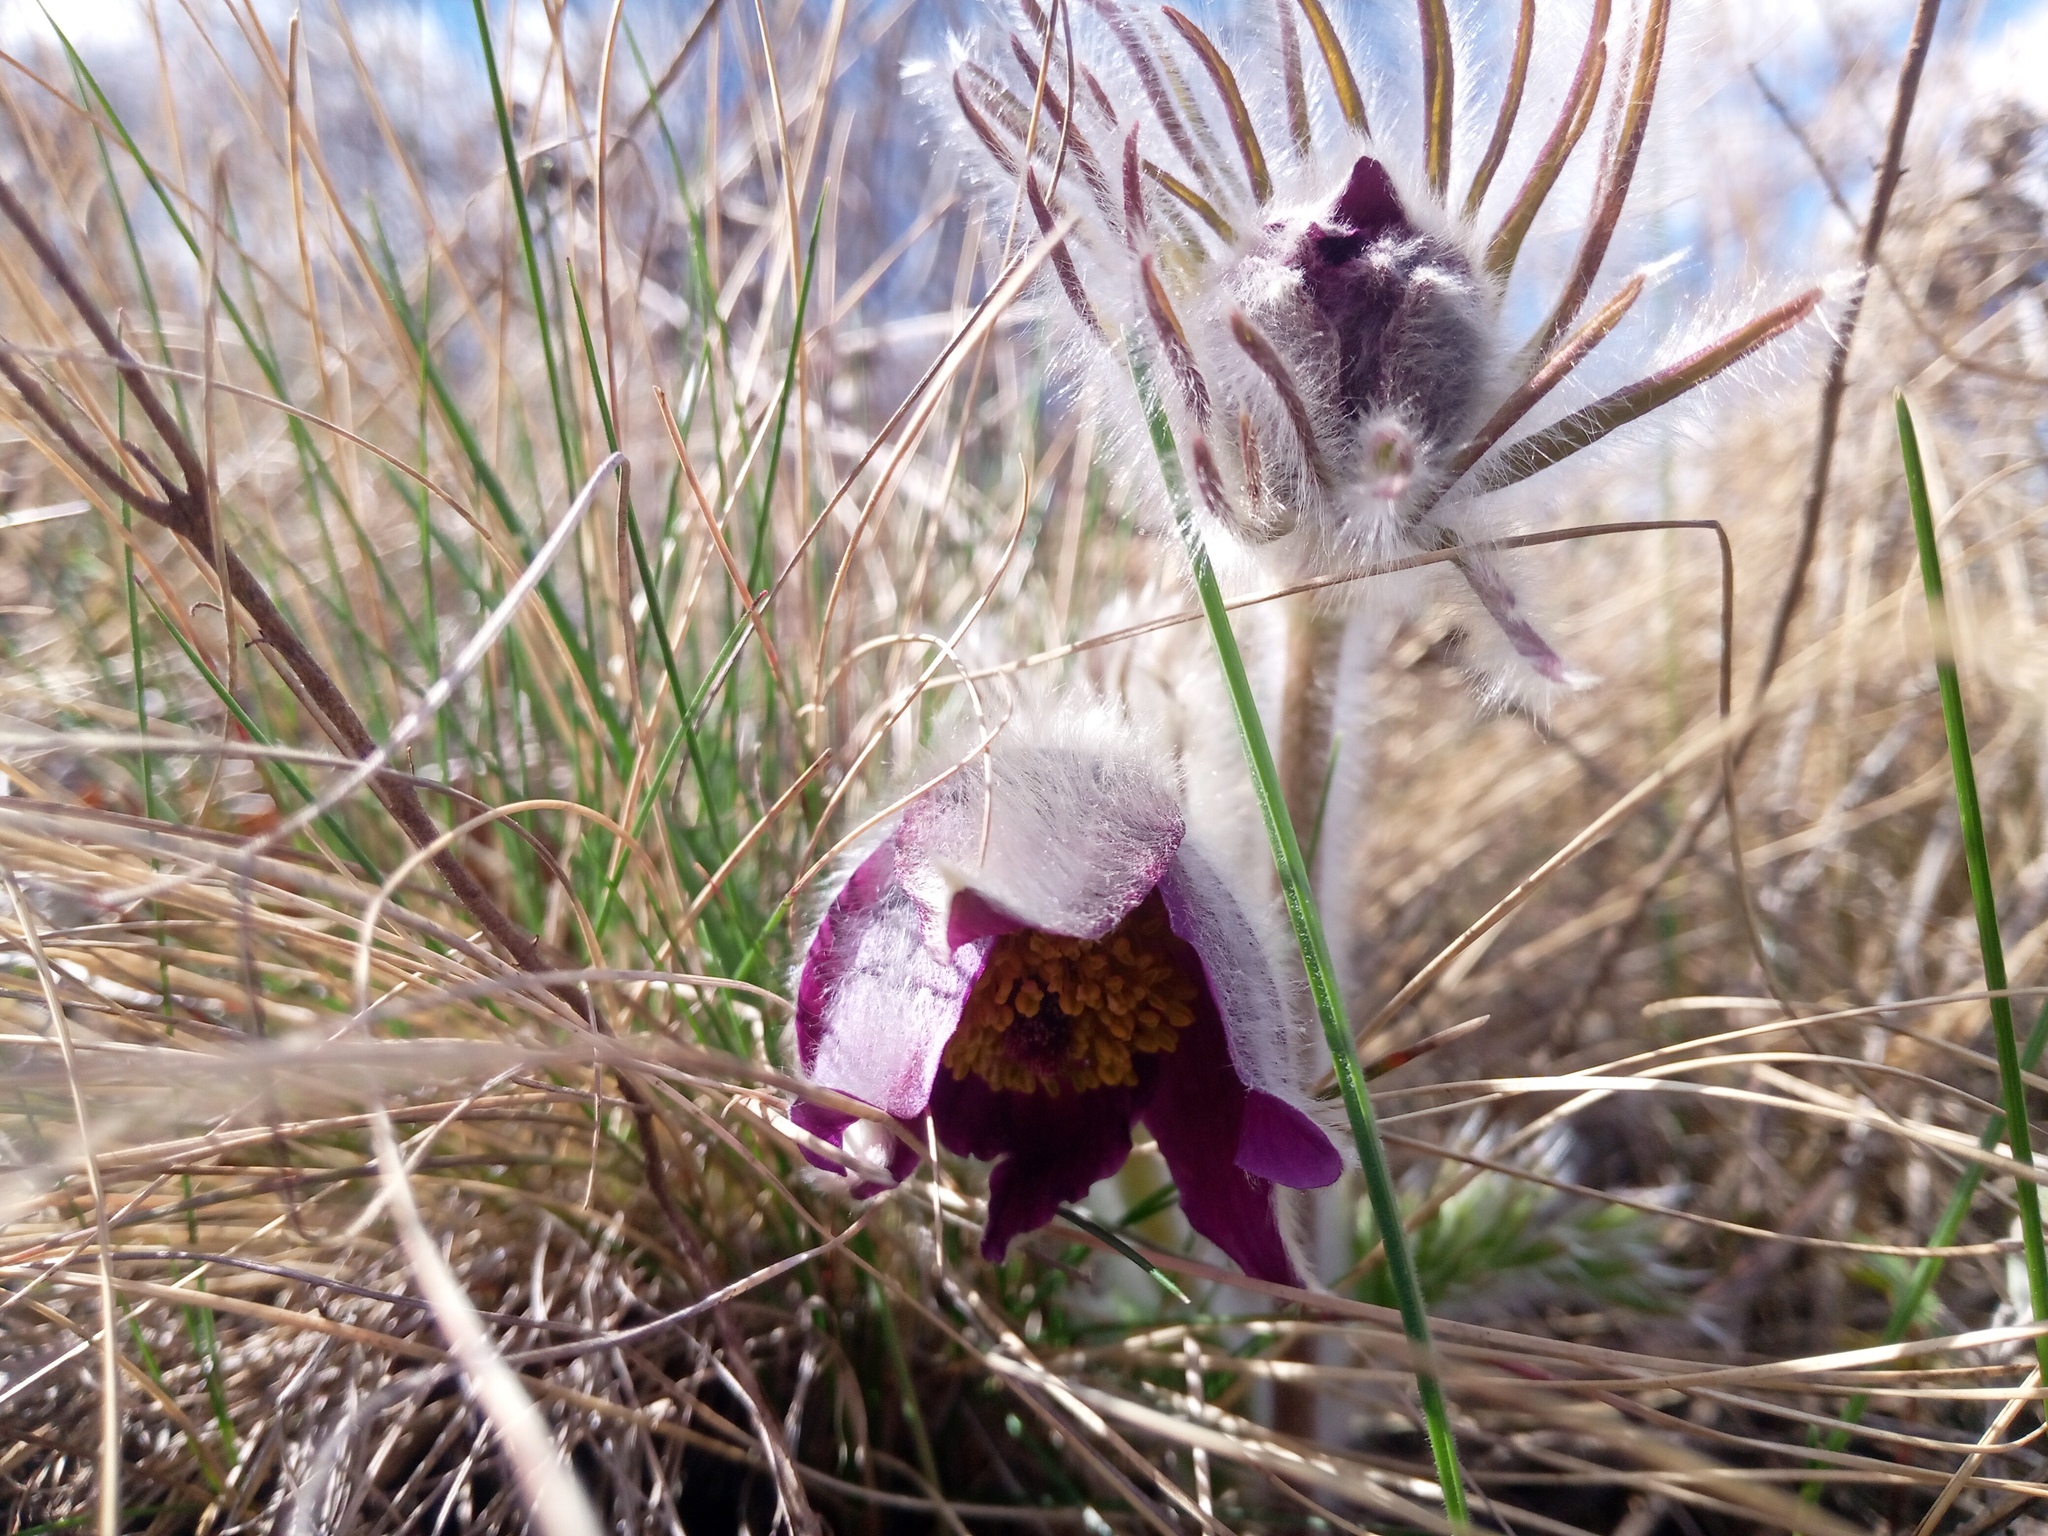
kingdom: Plantae
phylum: Tracheophyta
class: Magnoliopsida
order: Ranunculales
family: Ranunculaceae
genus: Pulsatilla
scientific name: Pulsatilla pratensis
